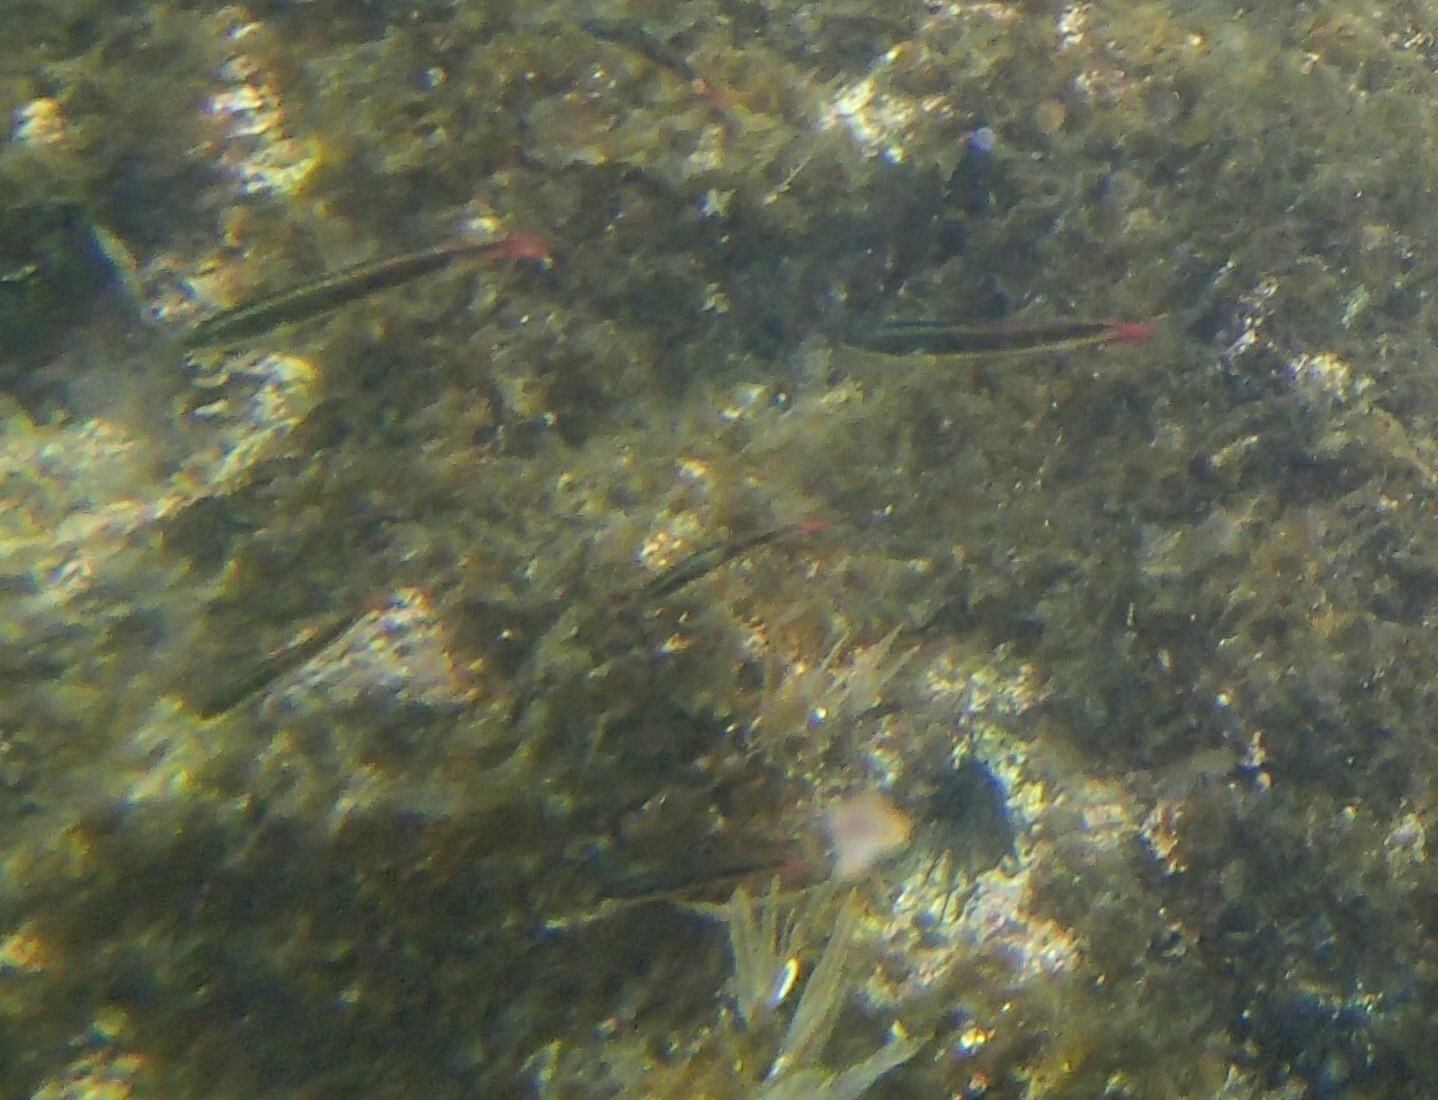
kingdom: Animalia
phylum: Chordata
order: Perciformes
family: Labridae
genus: Thalassoma
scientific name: Thalassoma lucasanum
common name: Cortez rainbow wrasse
